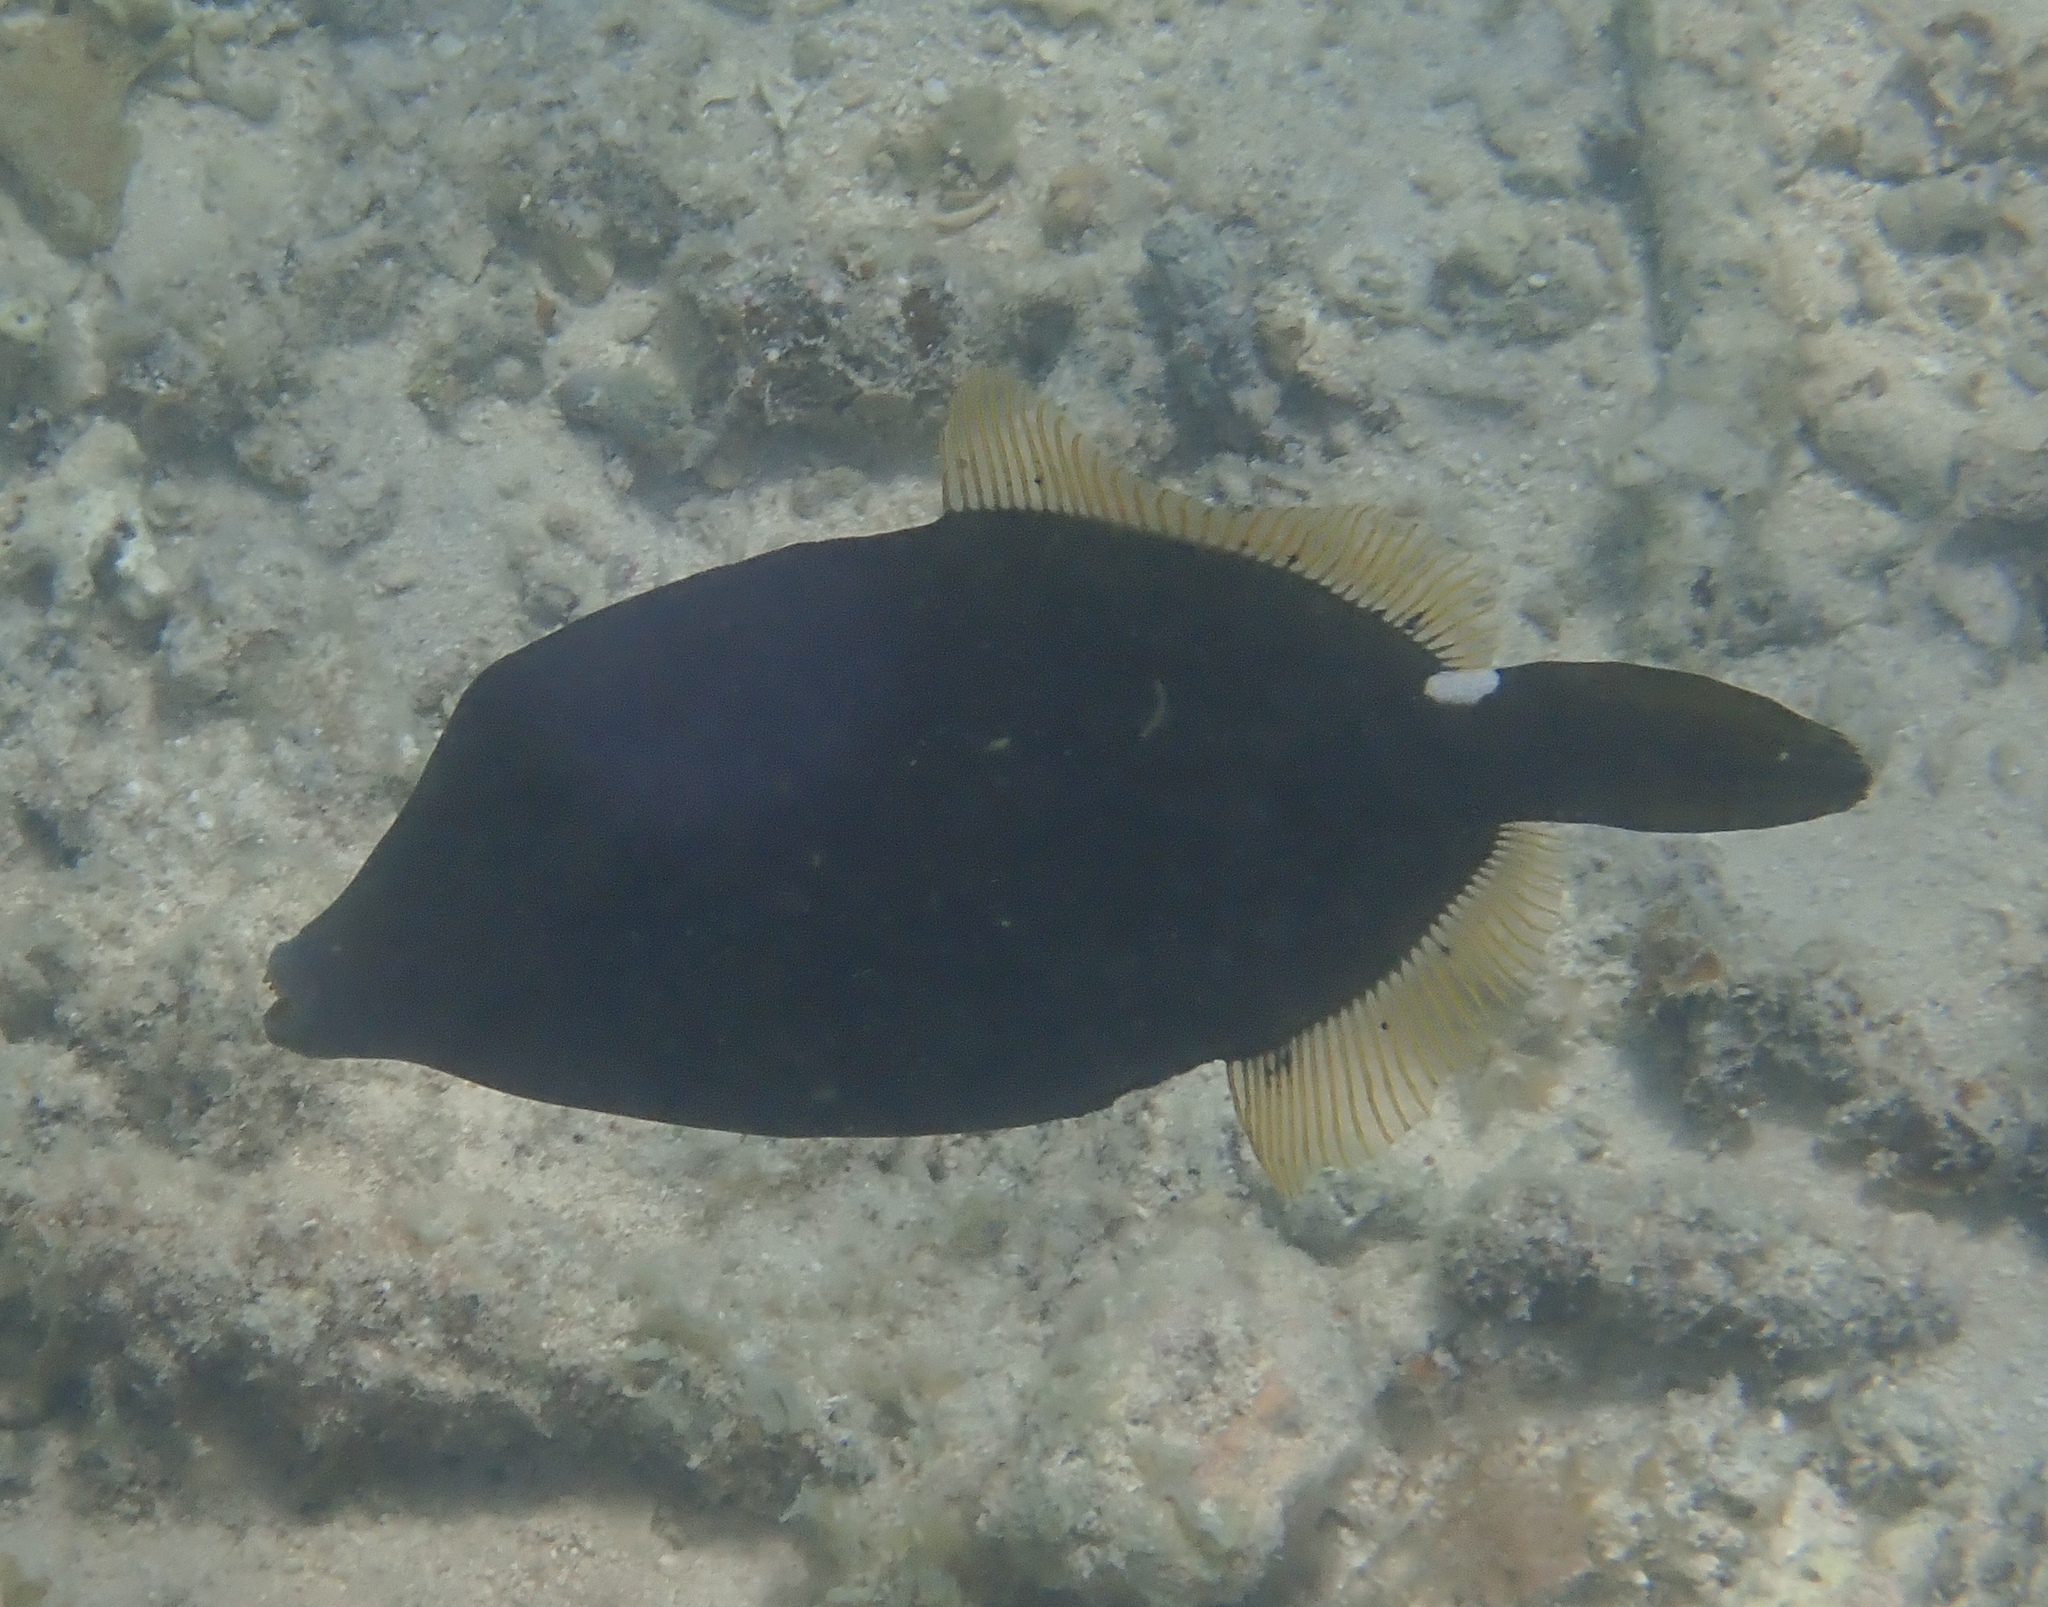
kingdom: Animalia
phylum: Chordata
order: Tetraodontiformes
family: Monacanthidae
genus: Eubalichthys
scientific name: Eubalichthys bucephalus
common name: Black reef leatherjacket
